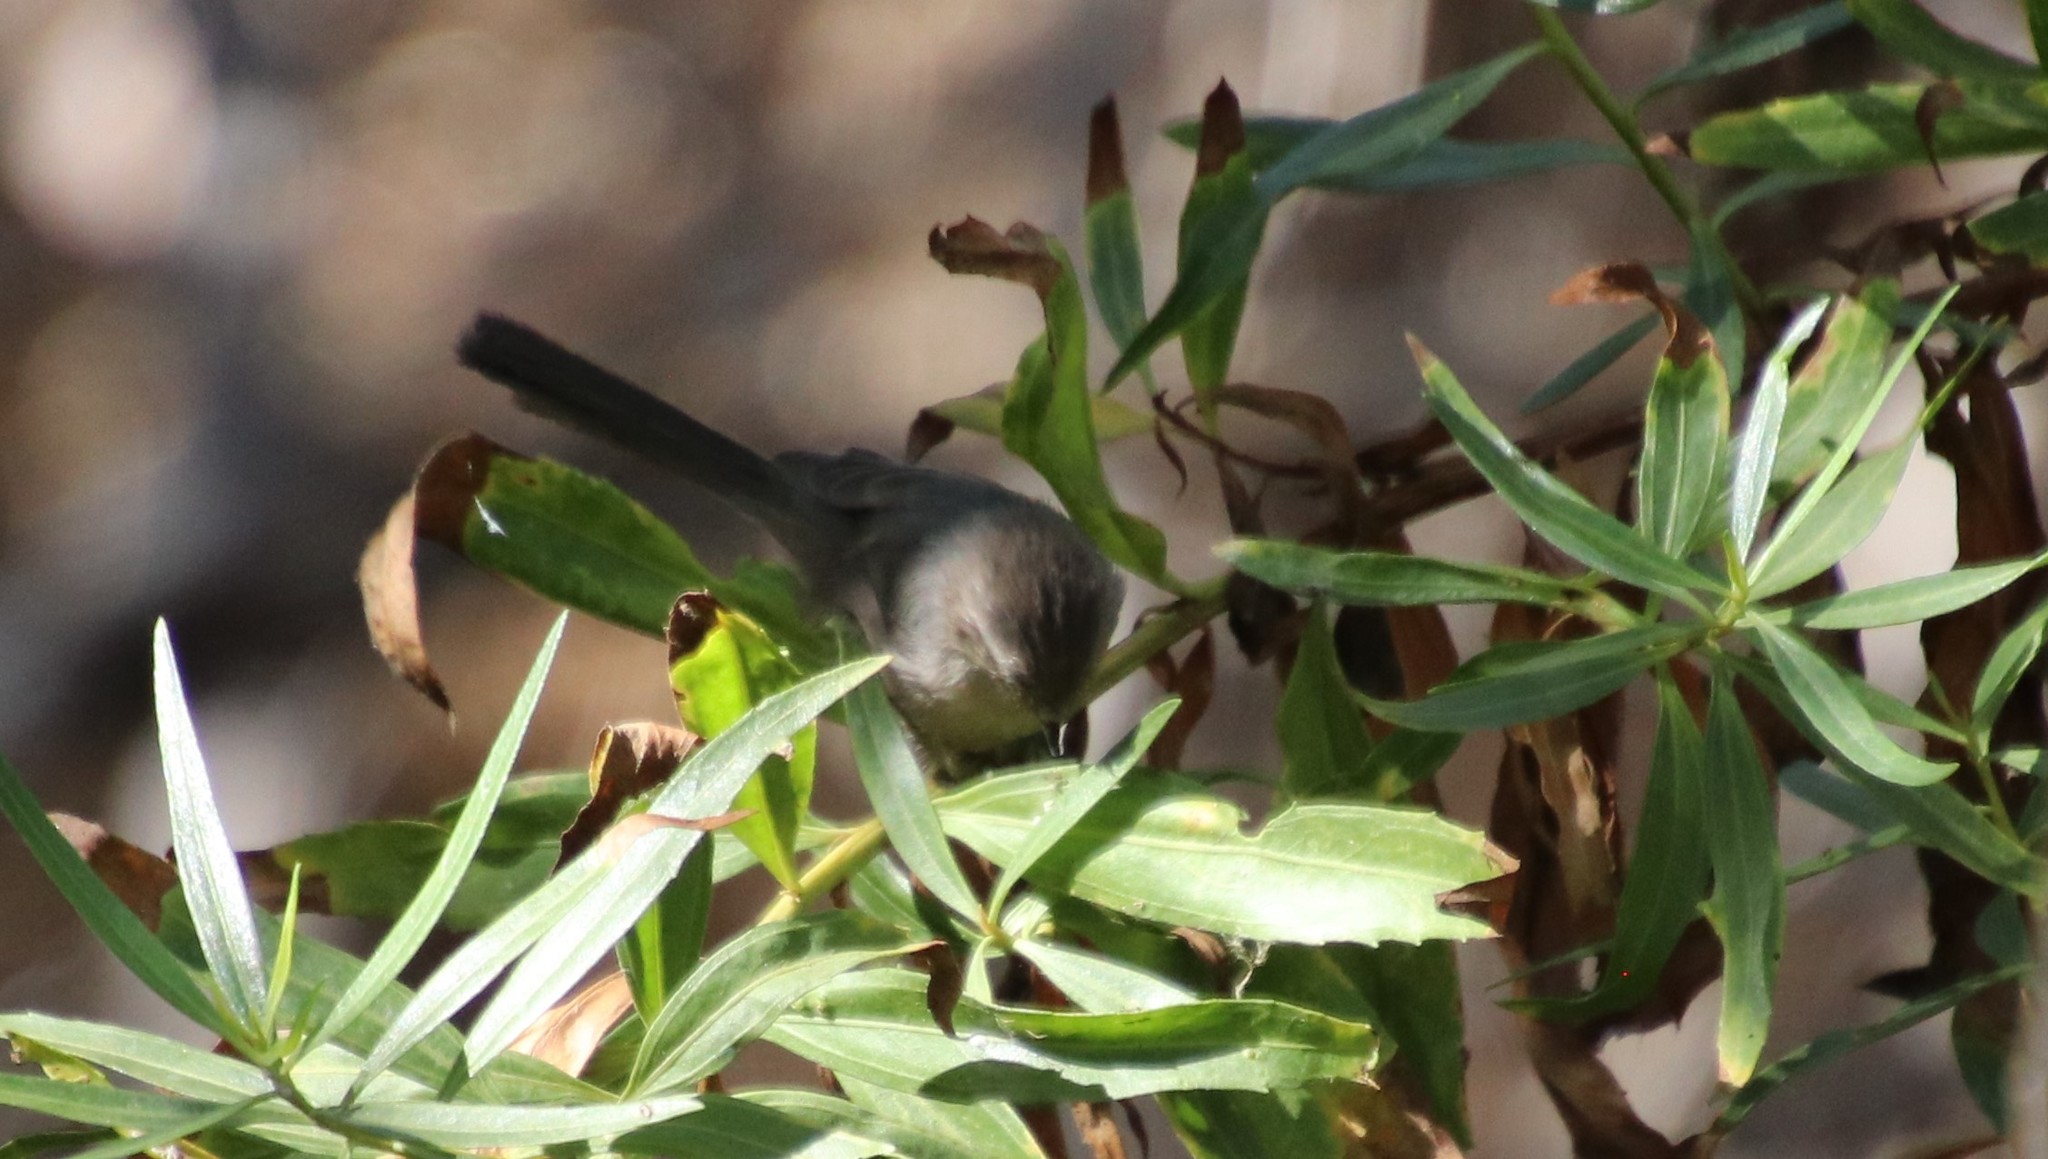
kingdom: Animalia
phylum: Chordata
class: Aves
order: Passeriformes
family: Aegithalidae
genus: Psaltriparus
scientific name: Psaltriparus minimus
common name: American bushtit
